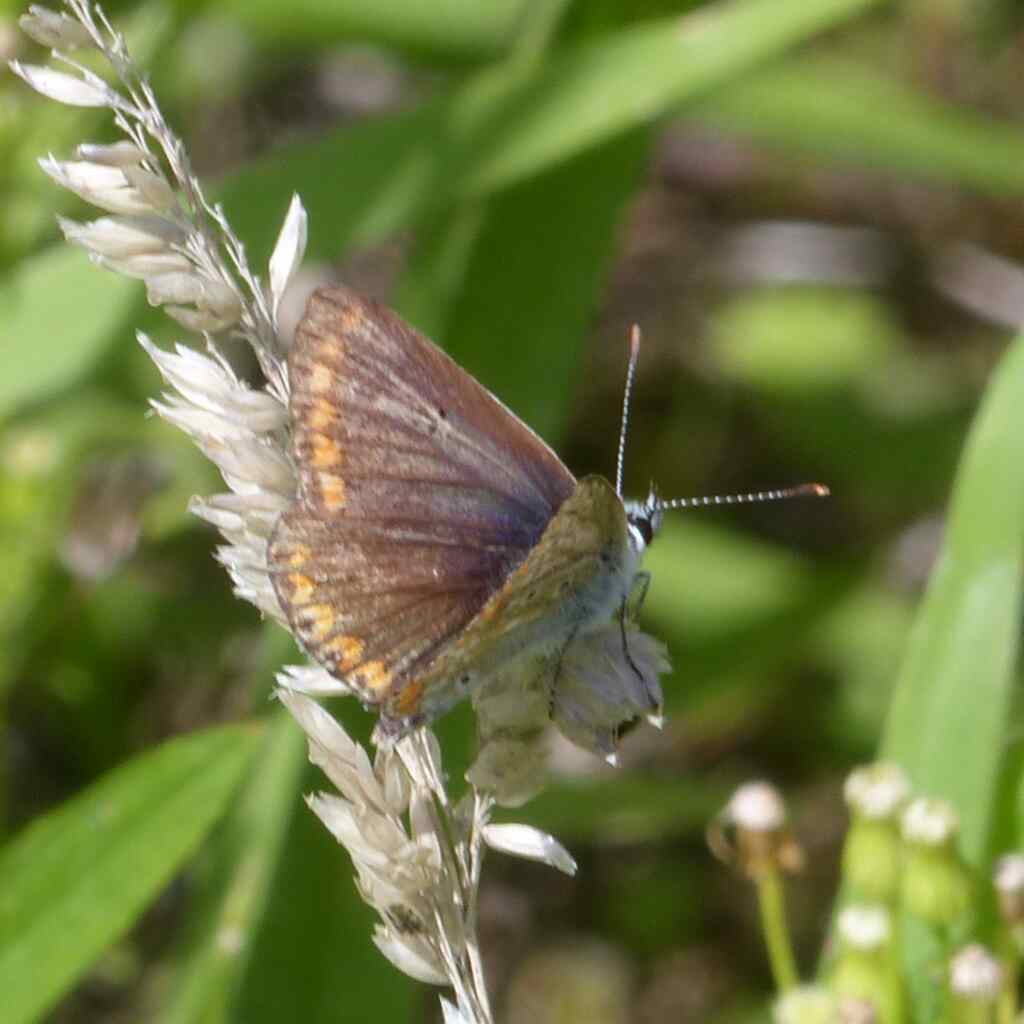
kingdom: Animalia
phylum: Arthropoda
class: Insecta
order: Lepidoptera
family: Lycaenidae
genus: Aricia
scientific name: Aricia agestis
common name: Brown argus
